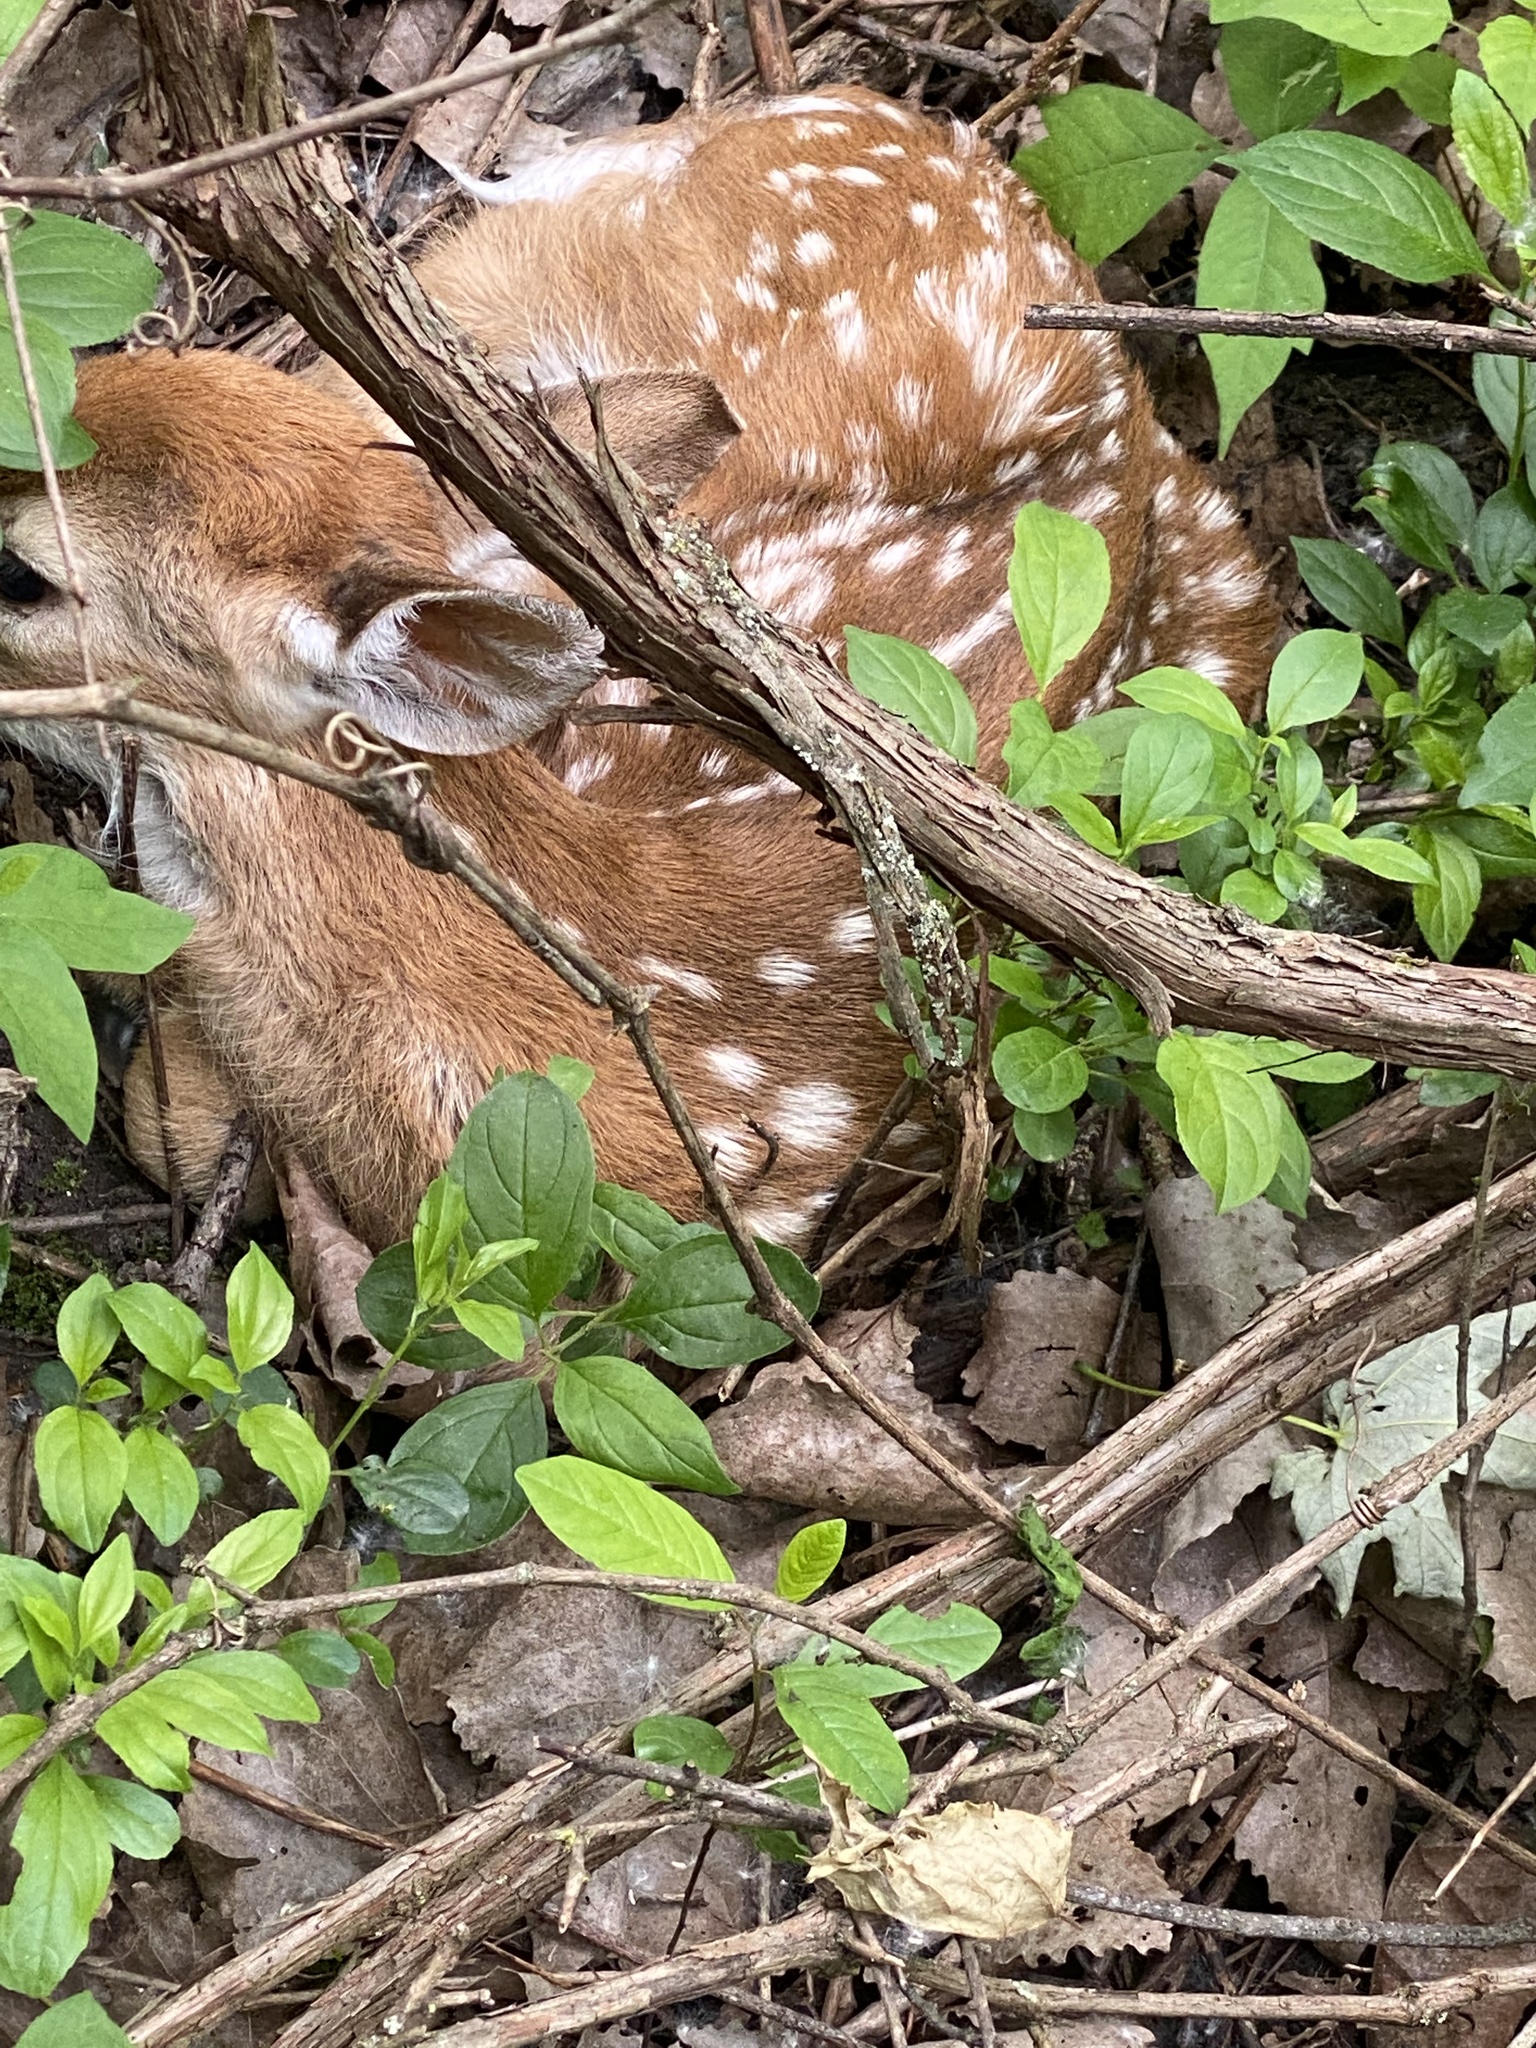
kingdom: Animalia
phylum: Chordata
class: Mammalia
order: Artiodactyla
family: Cervidae
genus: Odocoileus
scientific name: Odocoileus virginianus
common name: White-tailed deer
